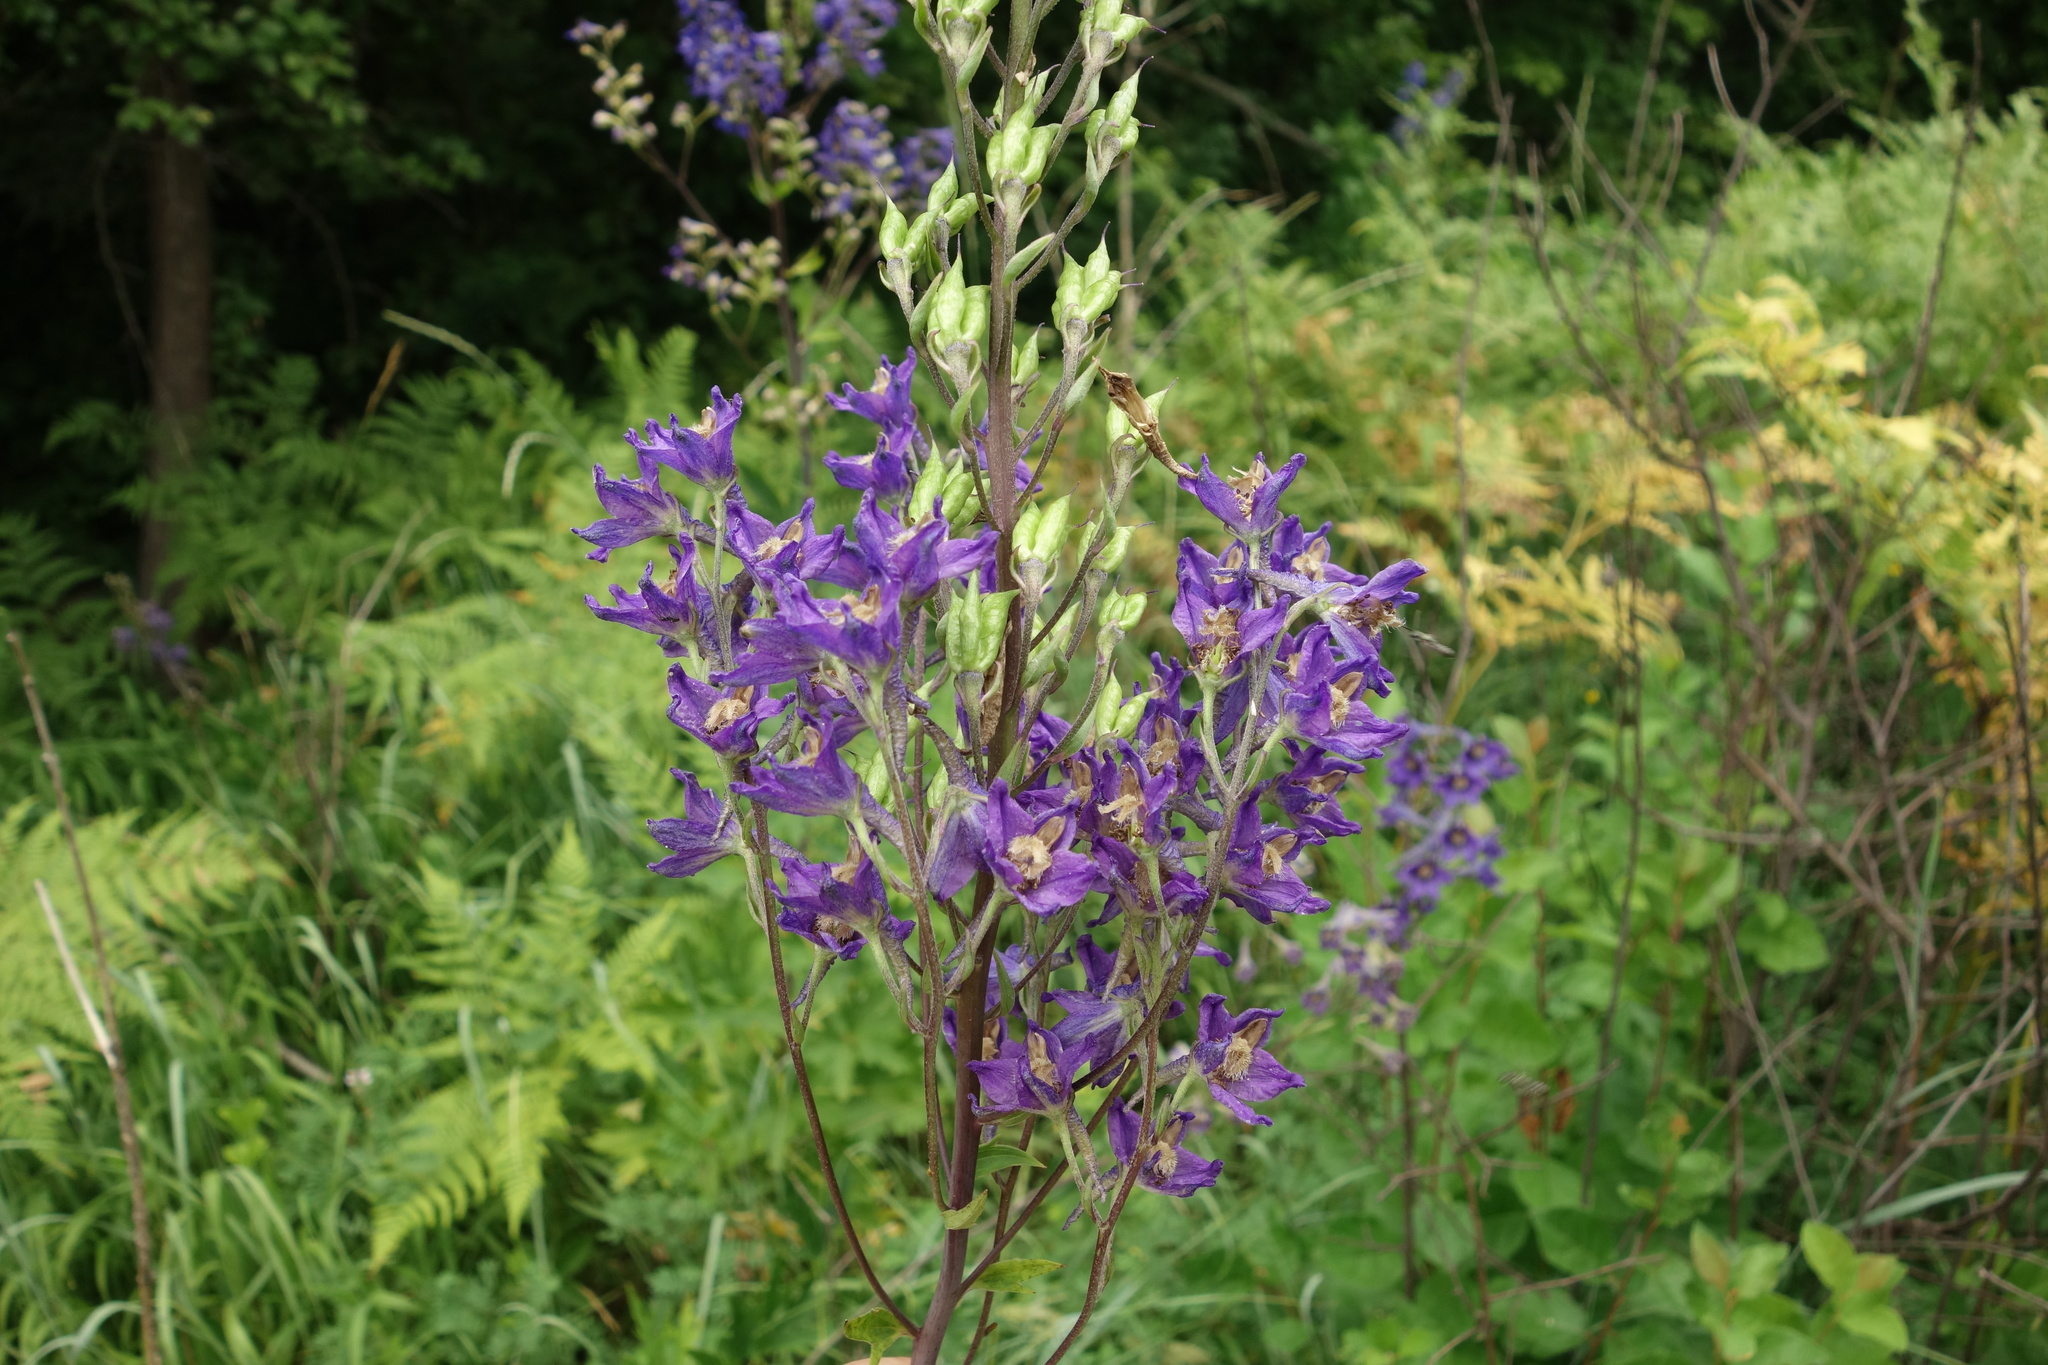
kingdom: Plantae
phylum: Tracheophyta
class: Magnoliopsida
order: Ranunculales
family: Ranunculaceae
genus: Delphinium
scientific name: Delphinium cuneatum
